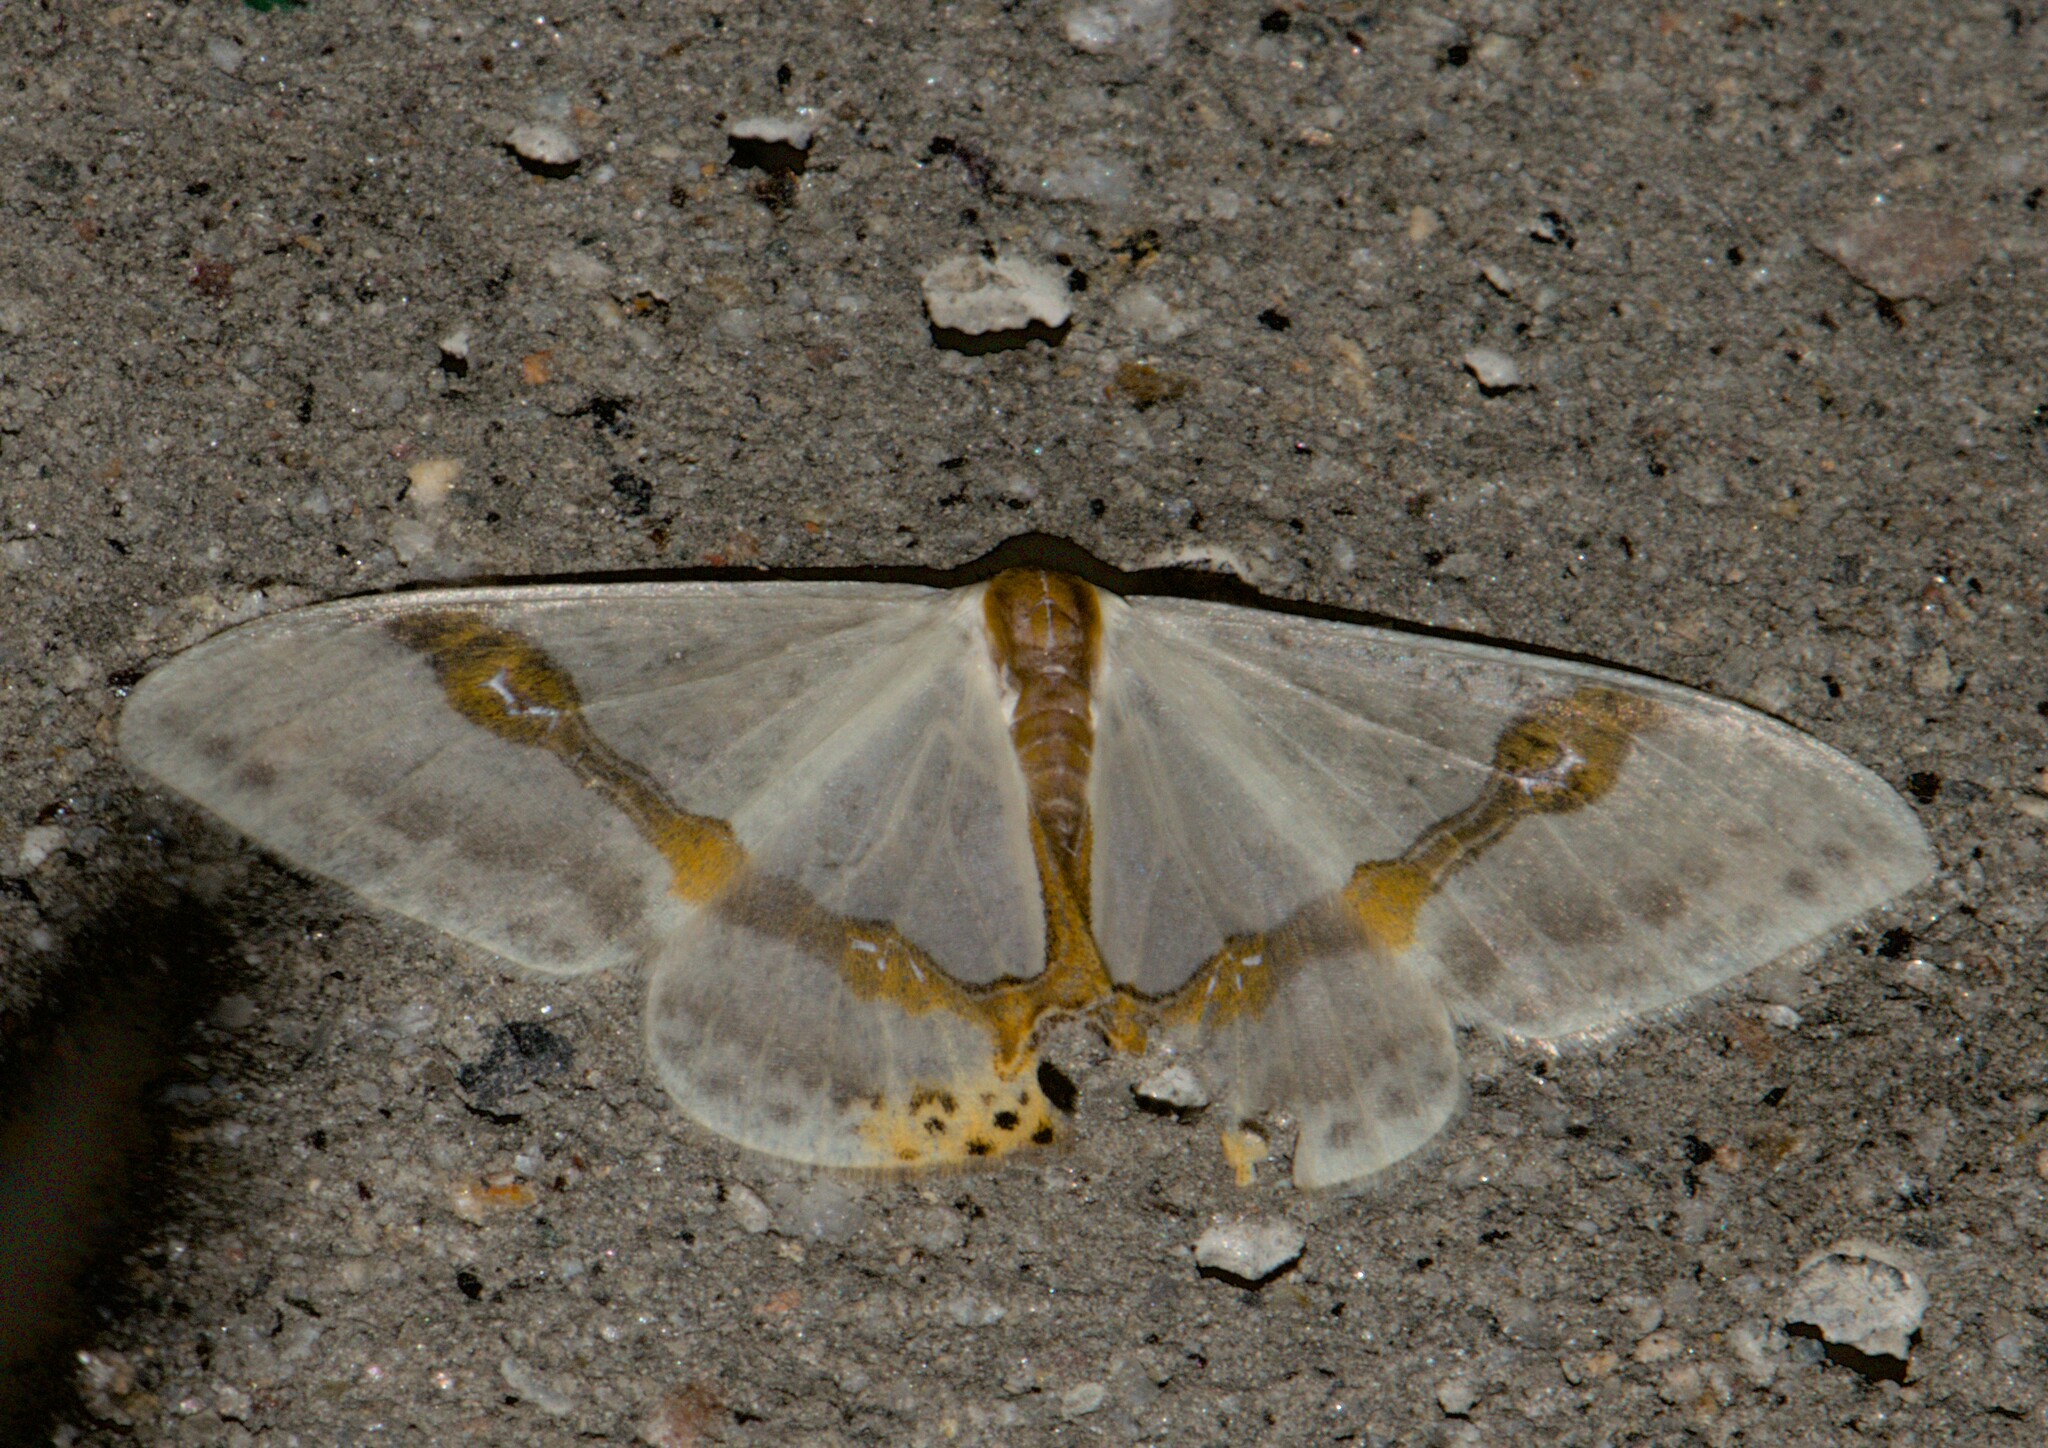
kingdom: Animalia
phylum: Arthropoda
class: Insecta
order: Lepidoptera
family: Drepanidae
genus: Macrocilix
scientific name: Macrocilix mysticata
